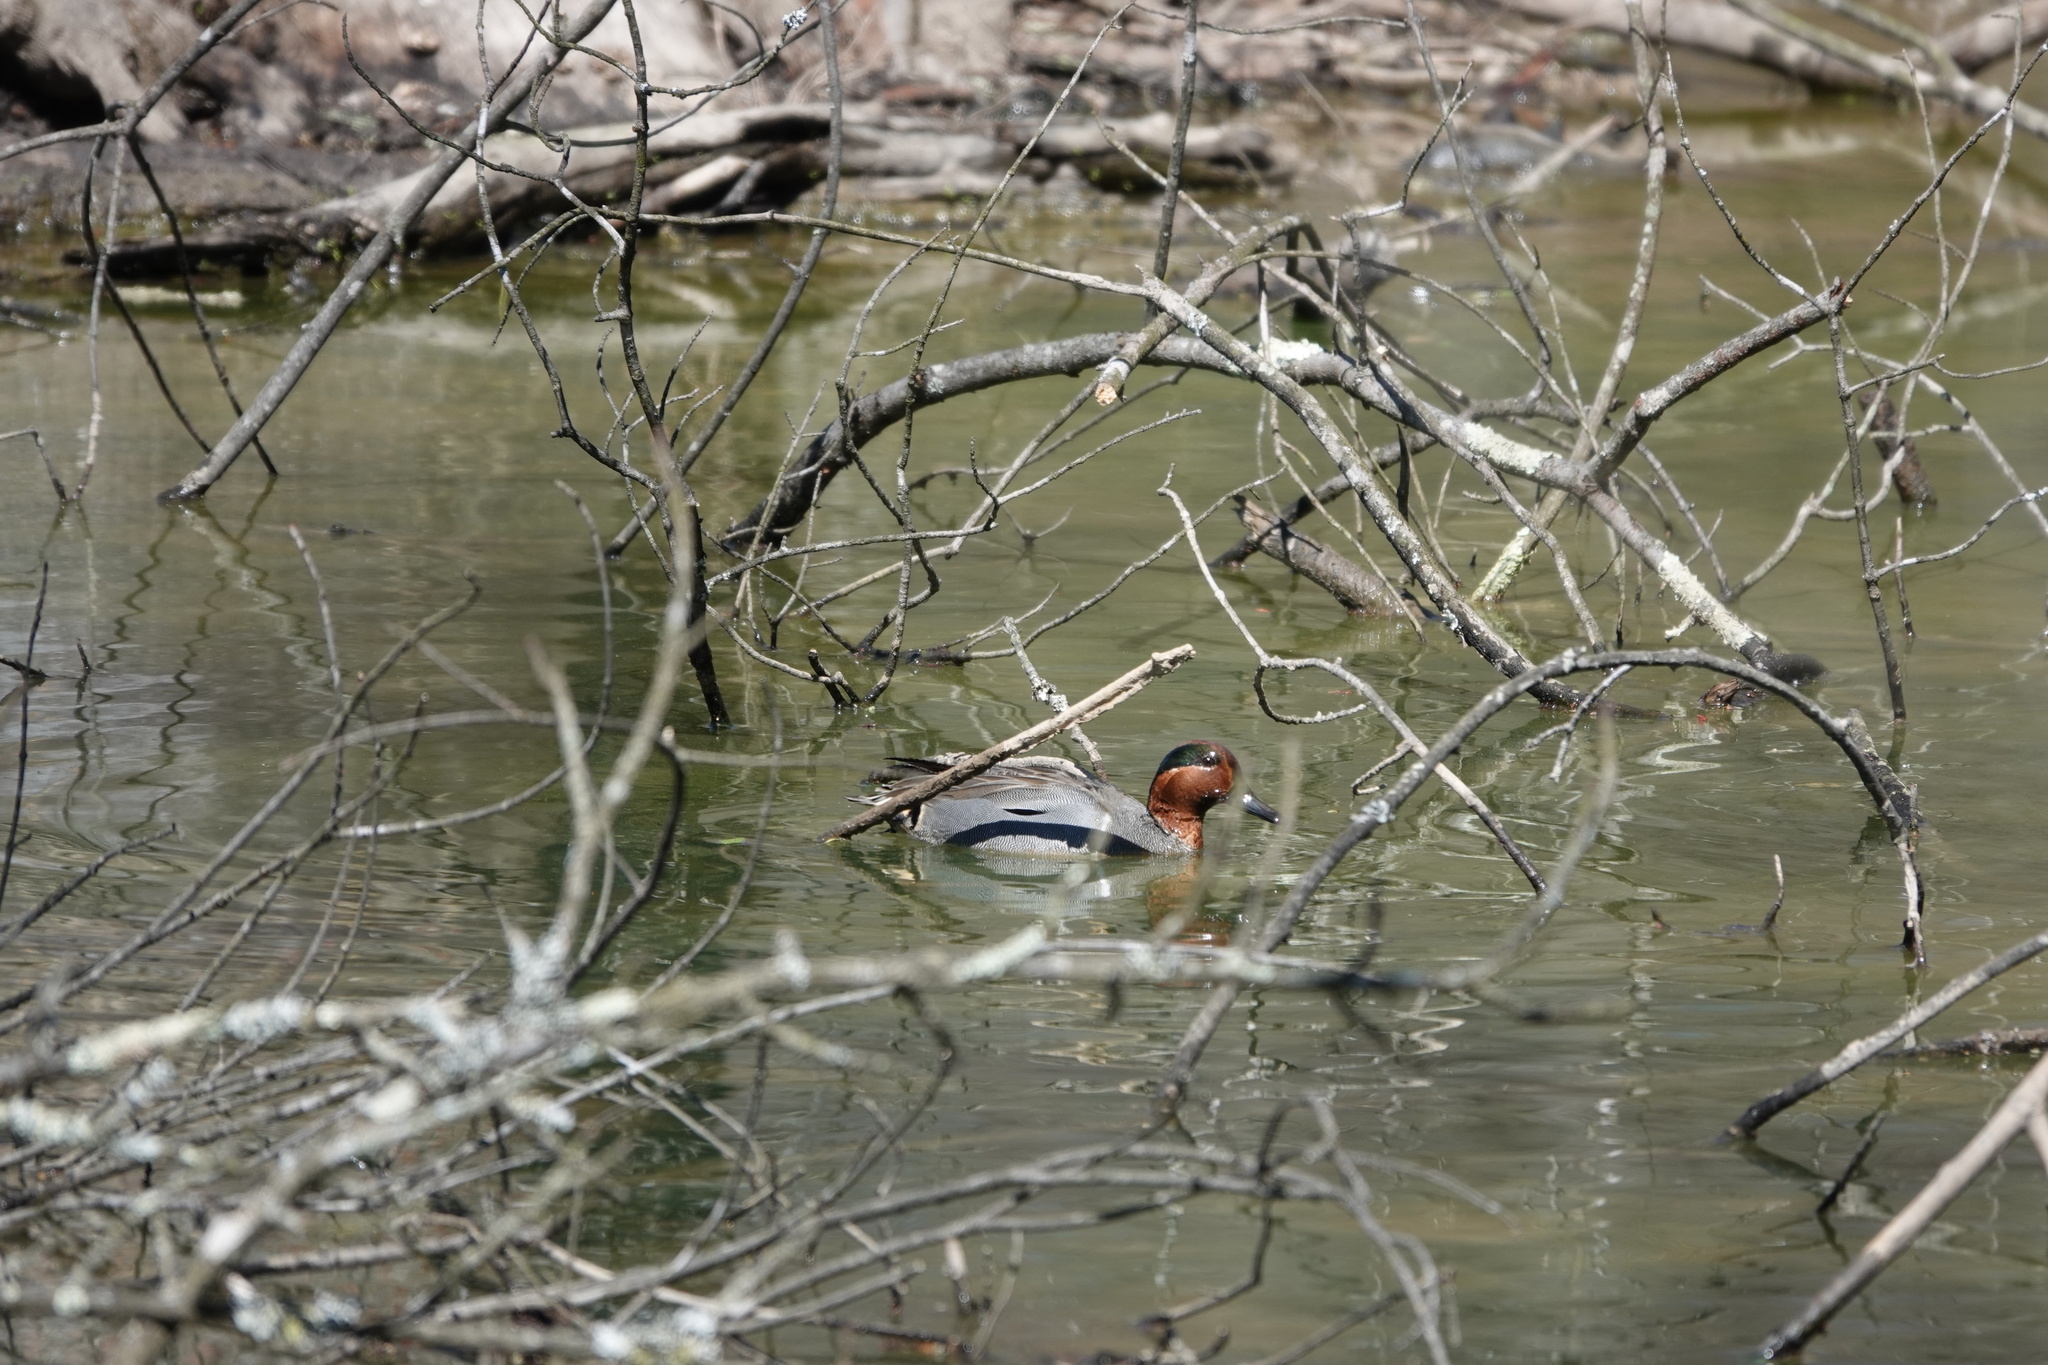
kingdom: Animalia
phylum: Chordata
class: Aves
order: Anseriformes
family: Anatidae
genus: Anas
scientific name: Anas crecca
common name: Eurasian teal
